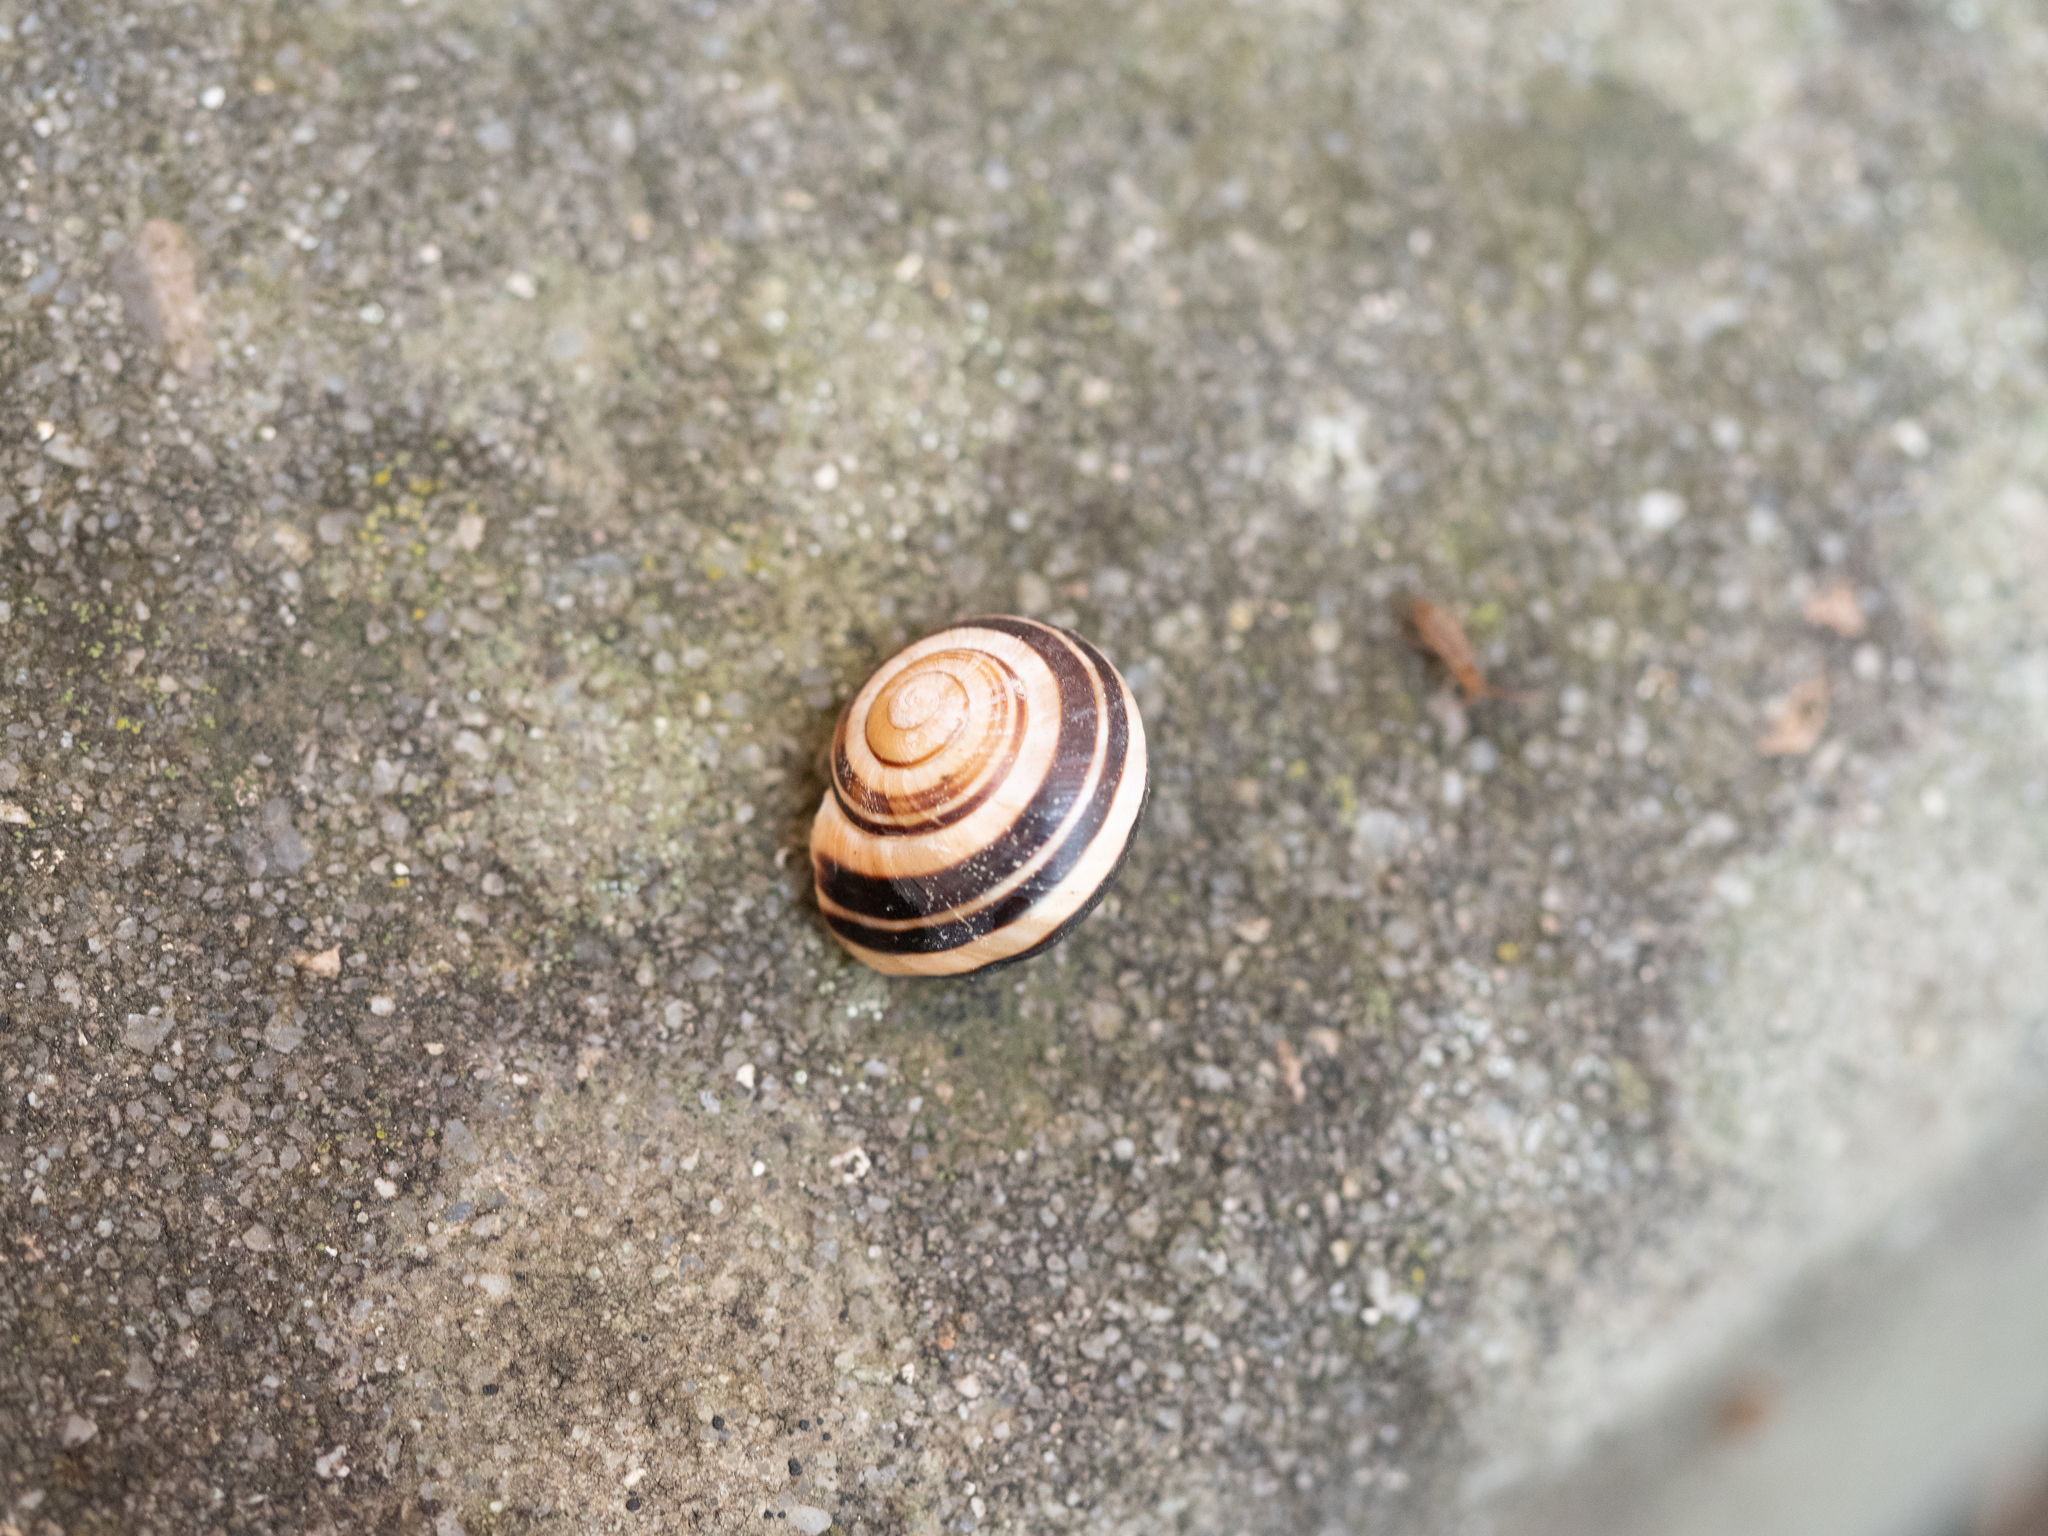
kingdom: Animalia
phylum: Mollusca
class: Gastropoda
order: Stylommatophora
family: Helicidae
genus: Cepaea
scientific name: Cepaea nemoralis
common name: Grovesnail
